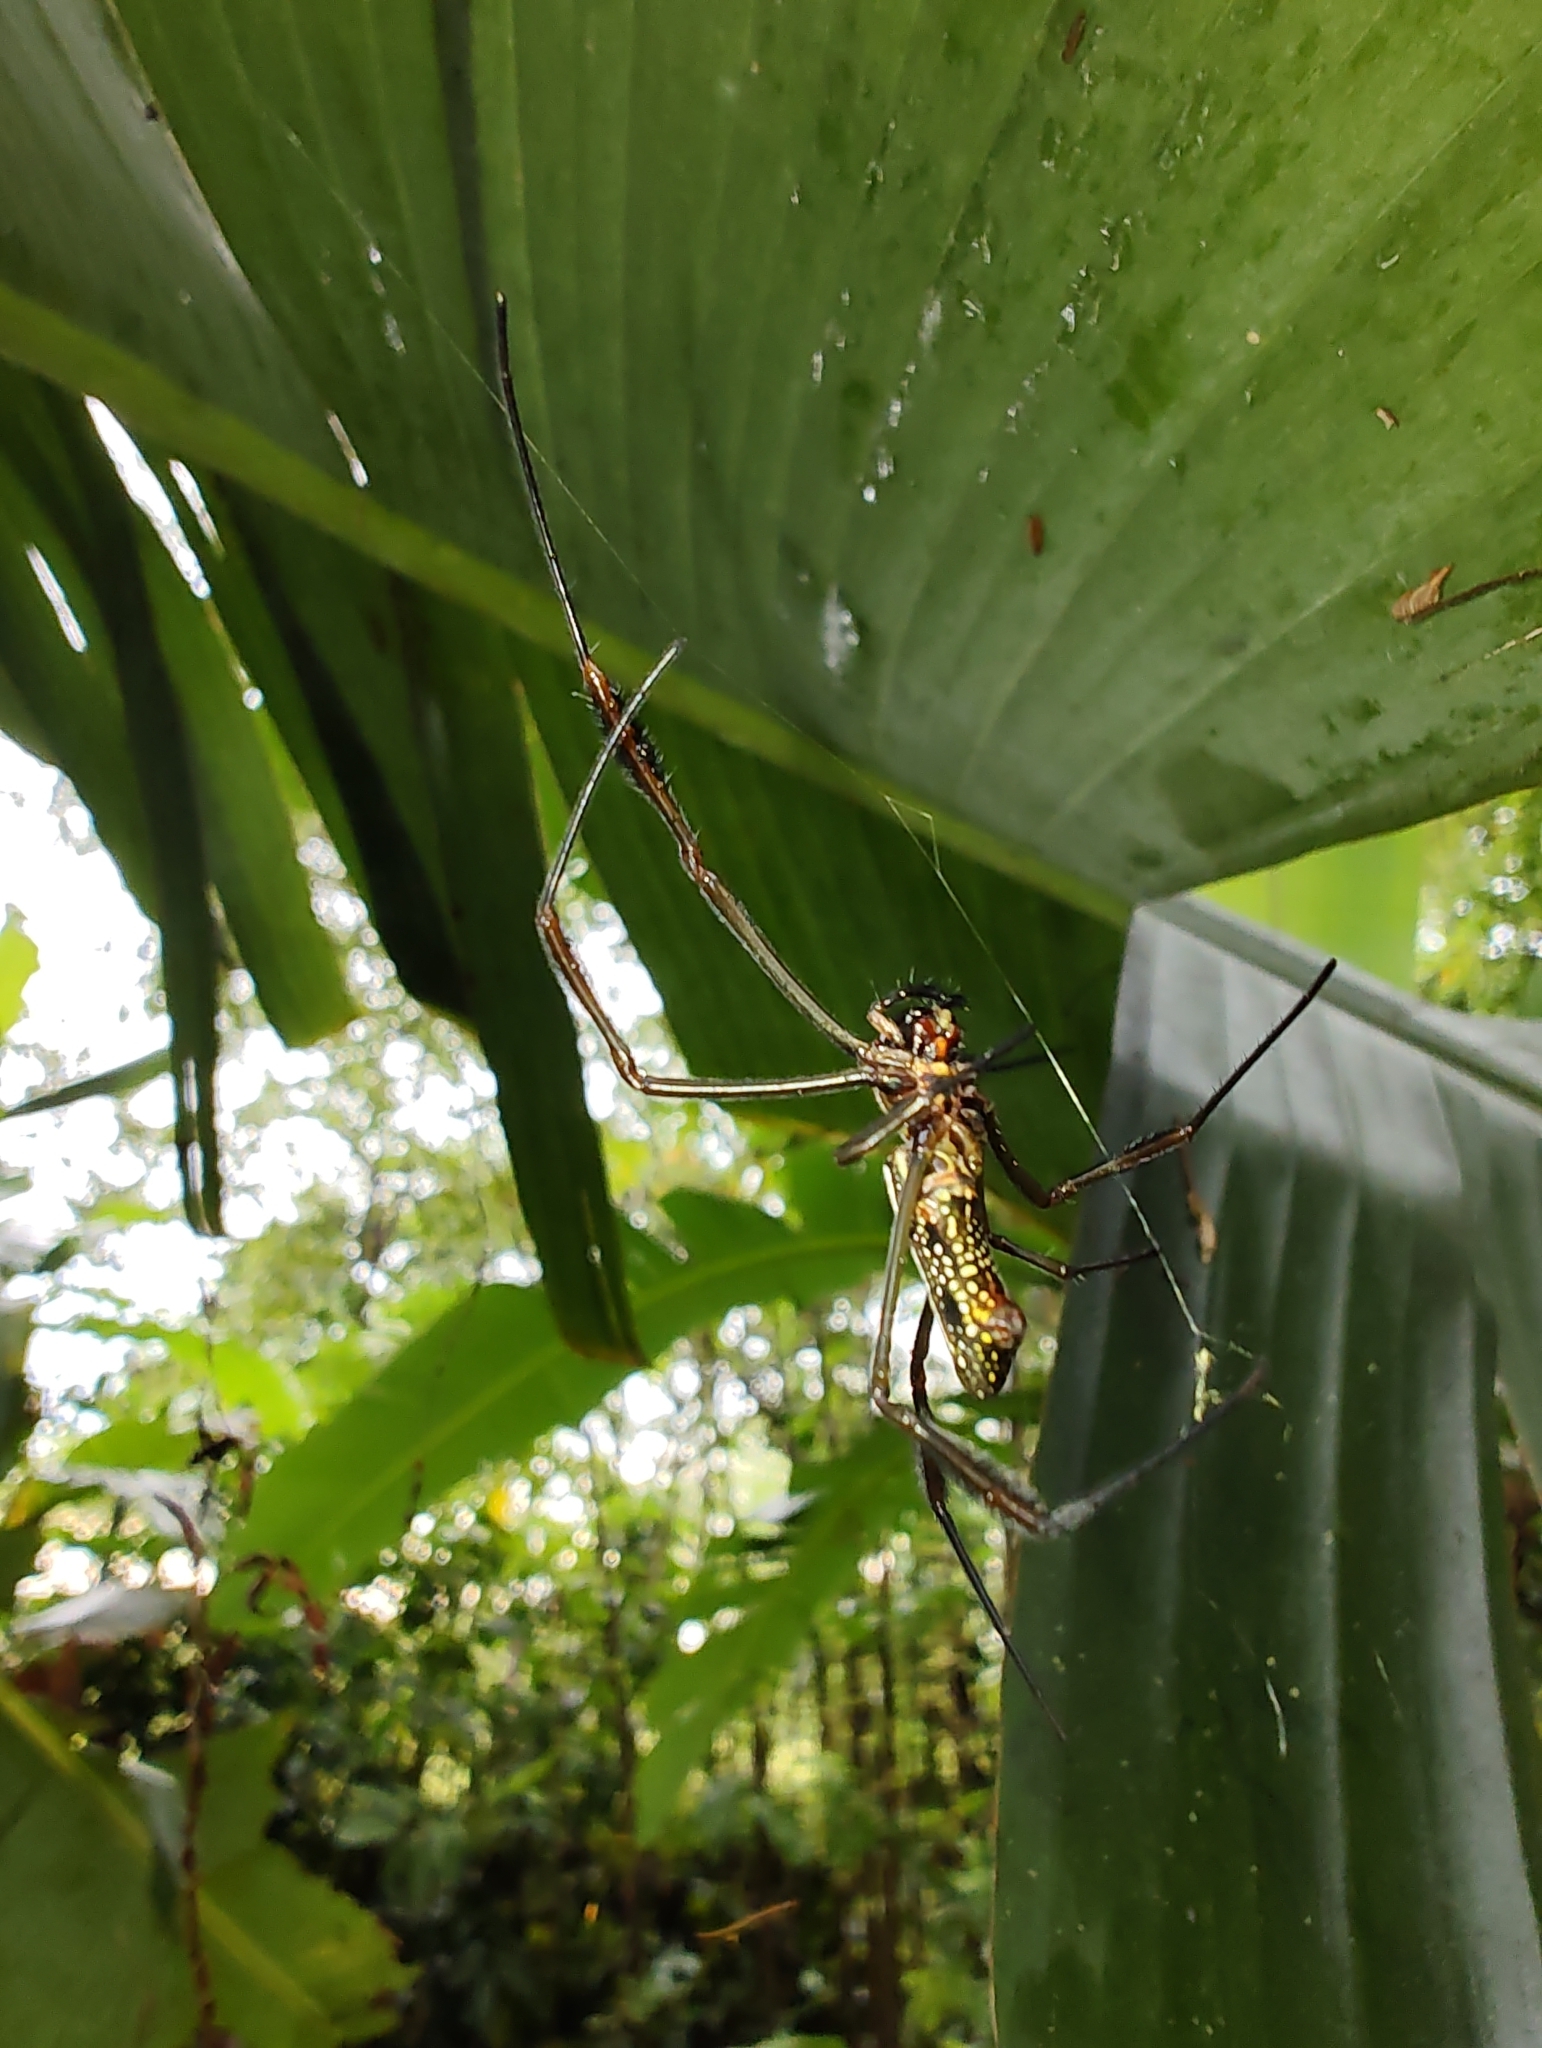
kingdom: Animalia
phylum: Arthropoda
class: Arachnida
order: Araneae
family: Araneidae
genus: Trichonephila
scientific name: Trichonephila clavipes
